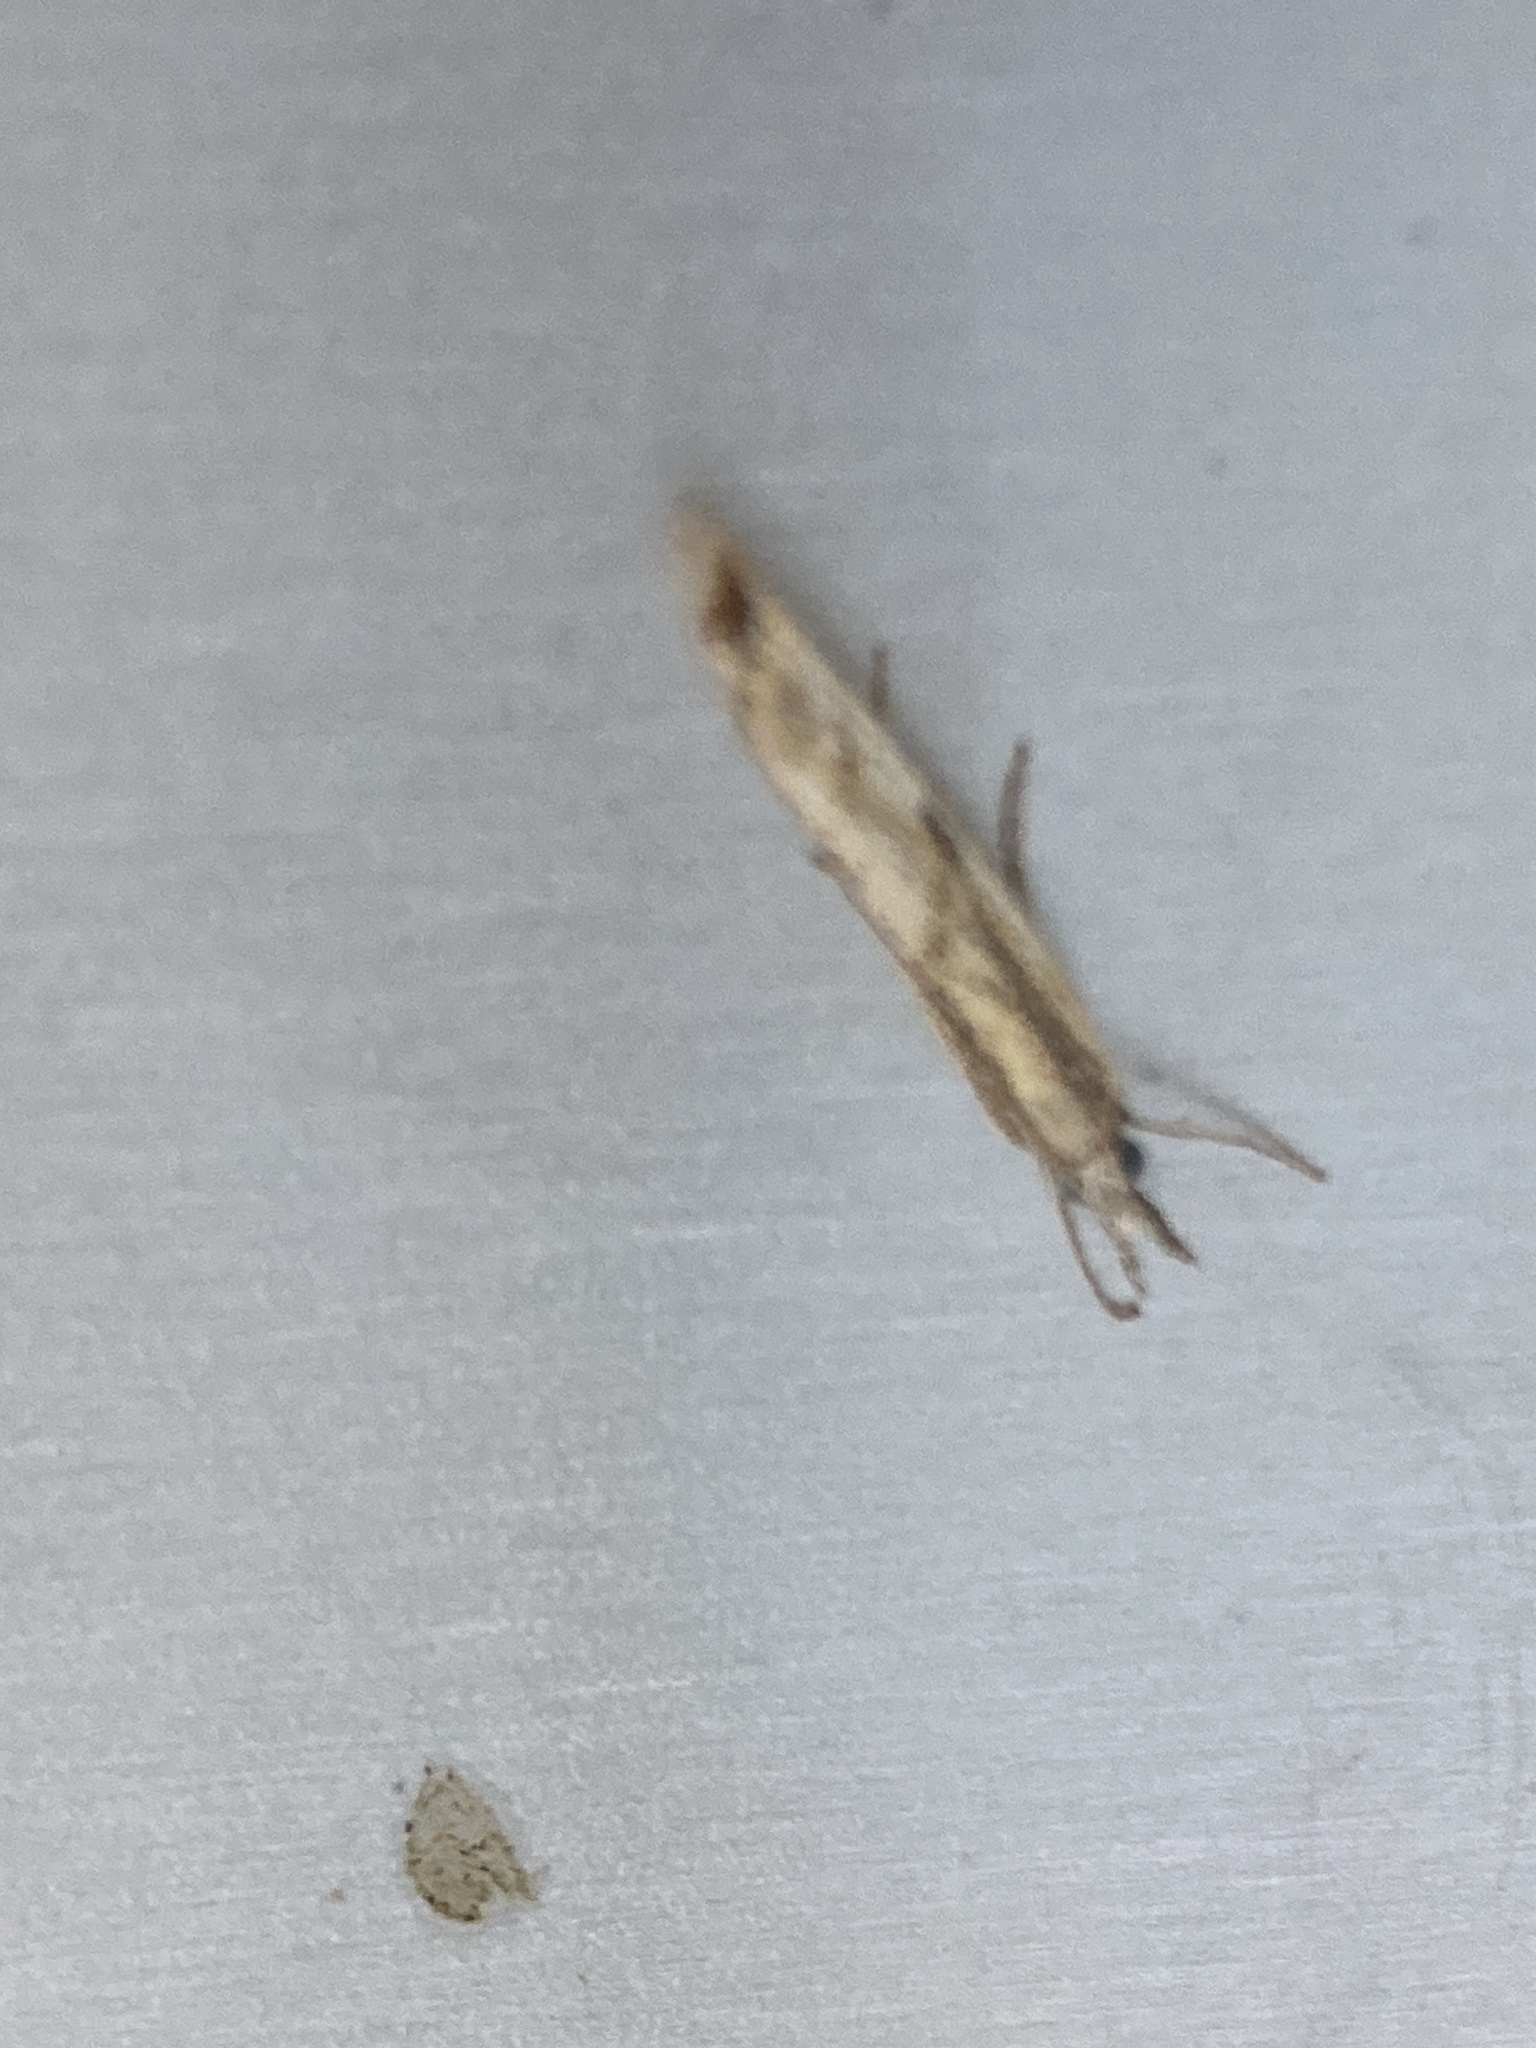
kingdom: Animalia
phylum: Arthropoda
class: Insecta
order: Lepidoptera
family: Crambidae
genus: Agriphila
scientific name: Agriphila inquinatella
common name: Barred grass-veneer
